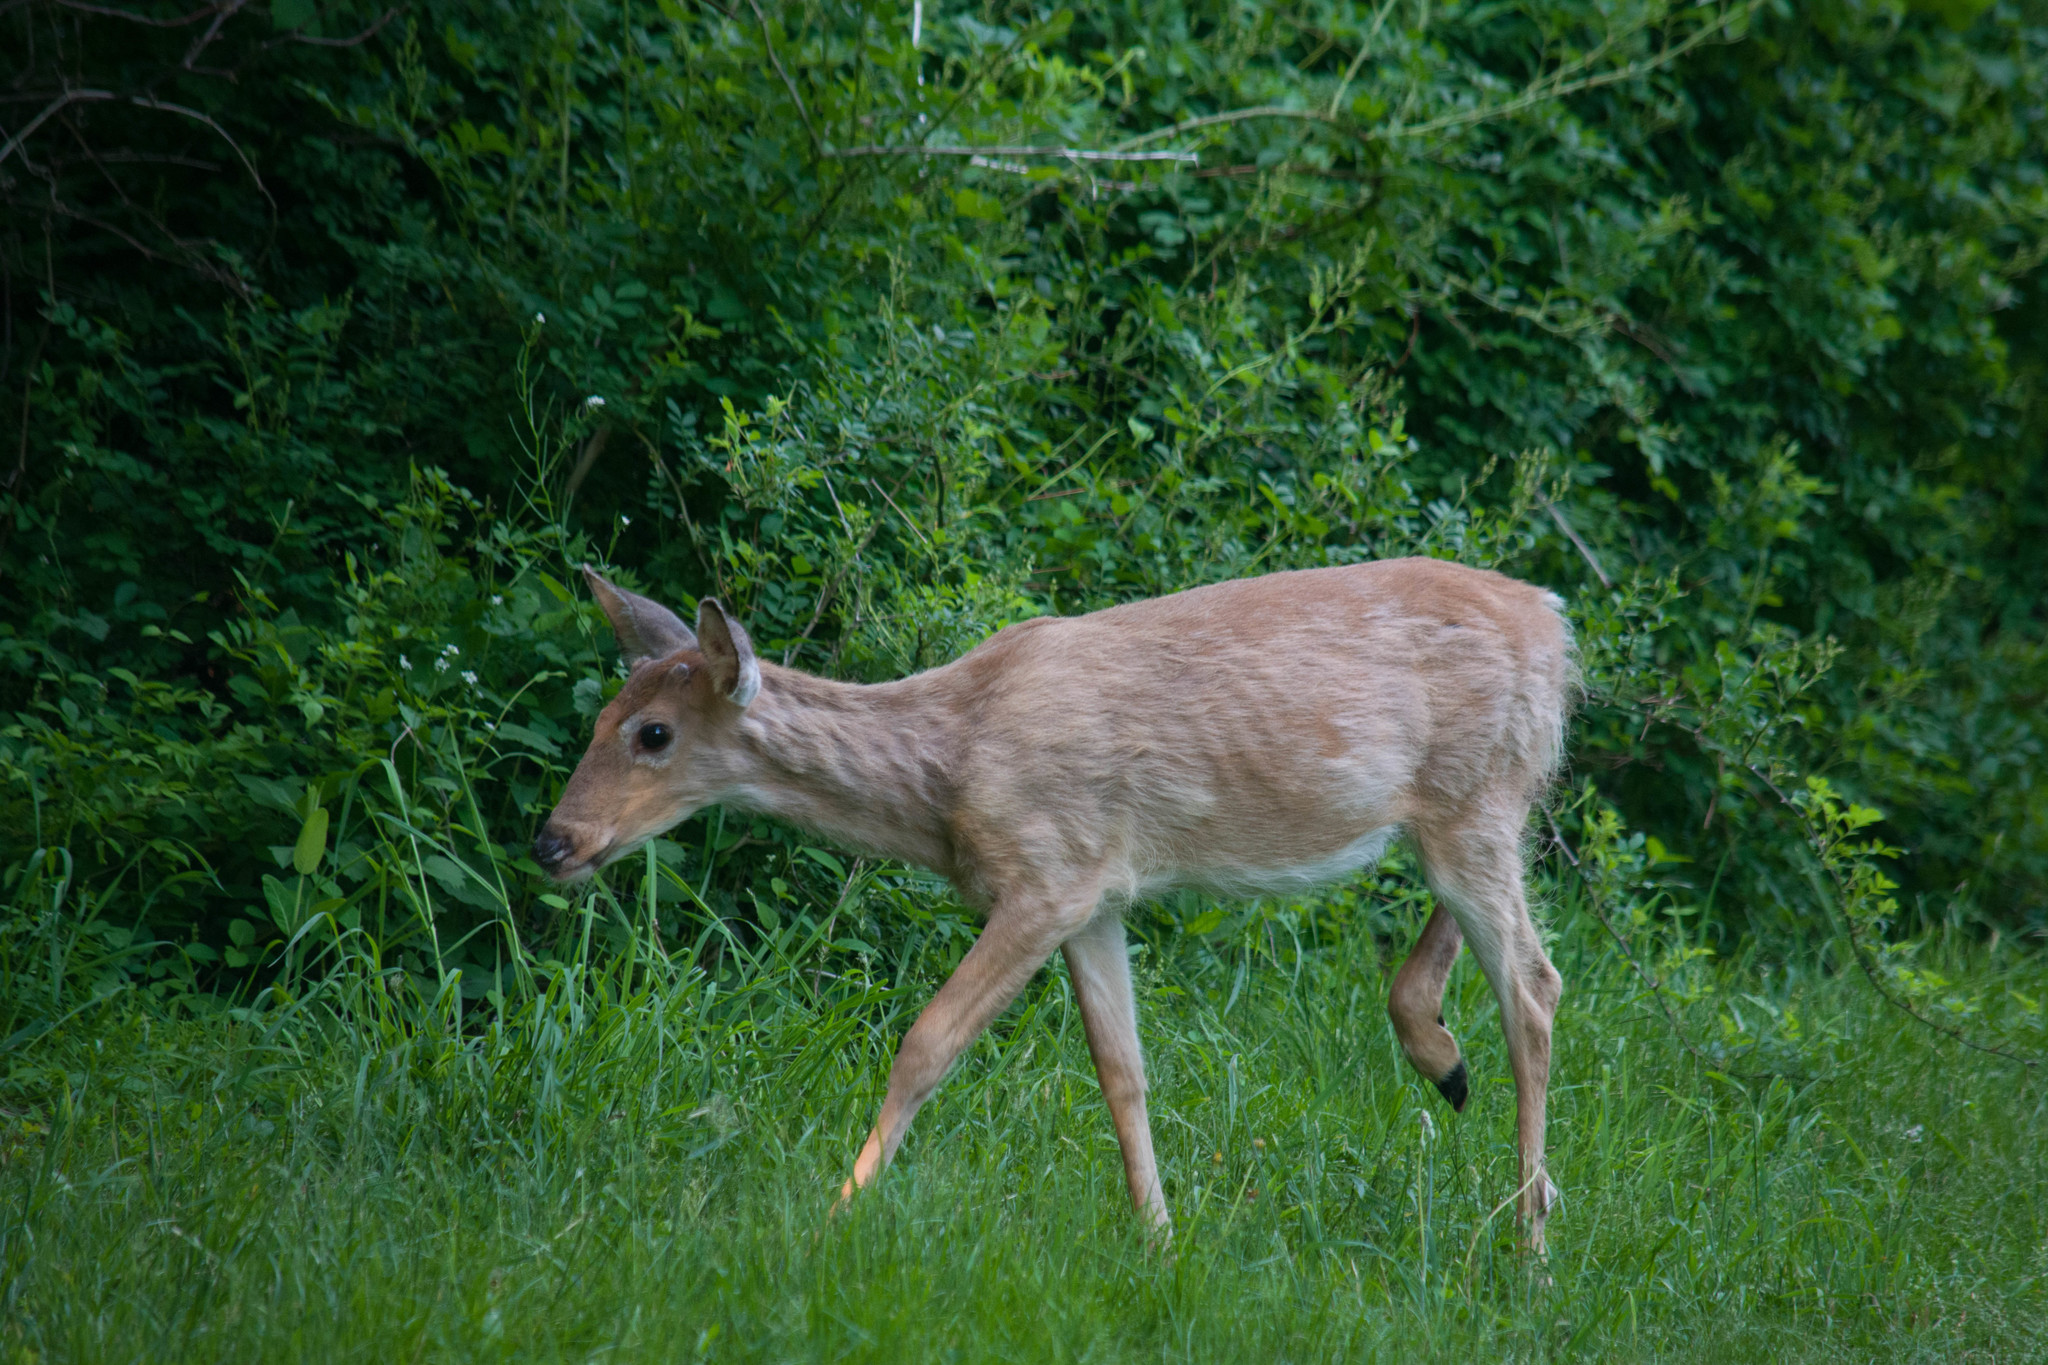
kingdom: Animalia
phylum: Chordata
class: Mammalia
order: Artiodactyla
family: Cervidae
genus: Odocoileus
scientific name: Odocoileus virginianus
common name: White-tailed deer
